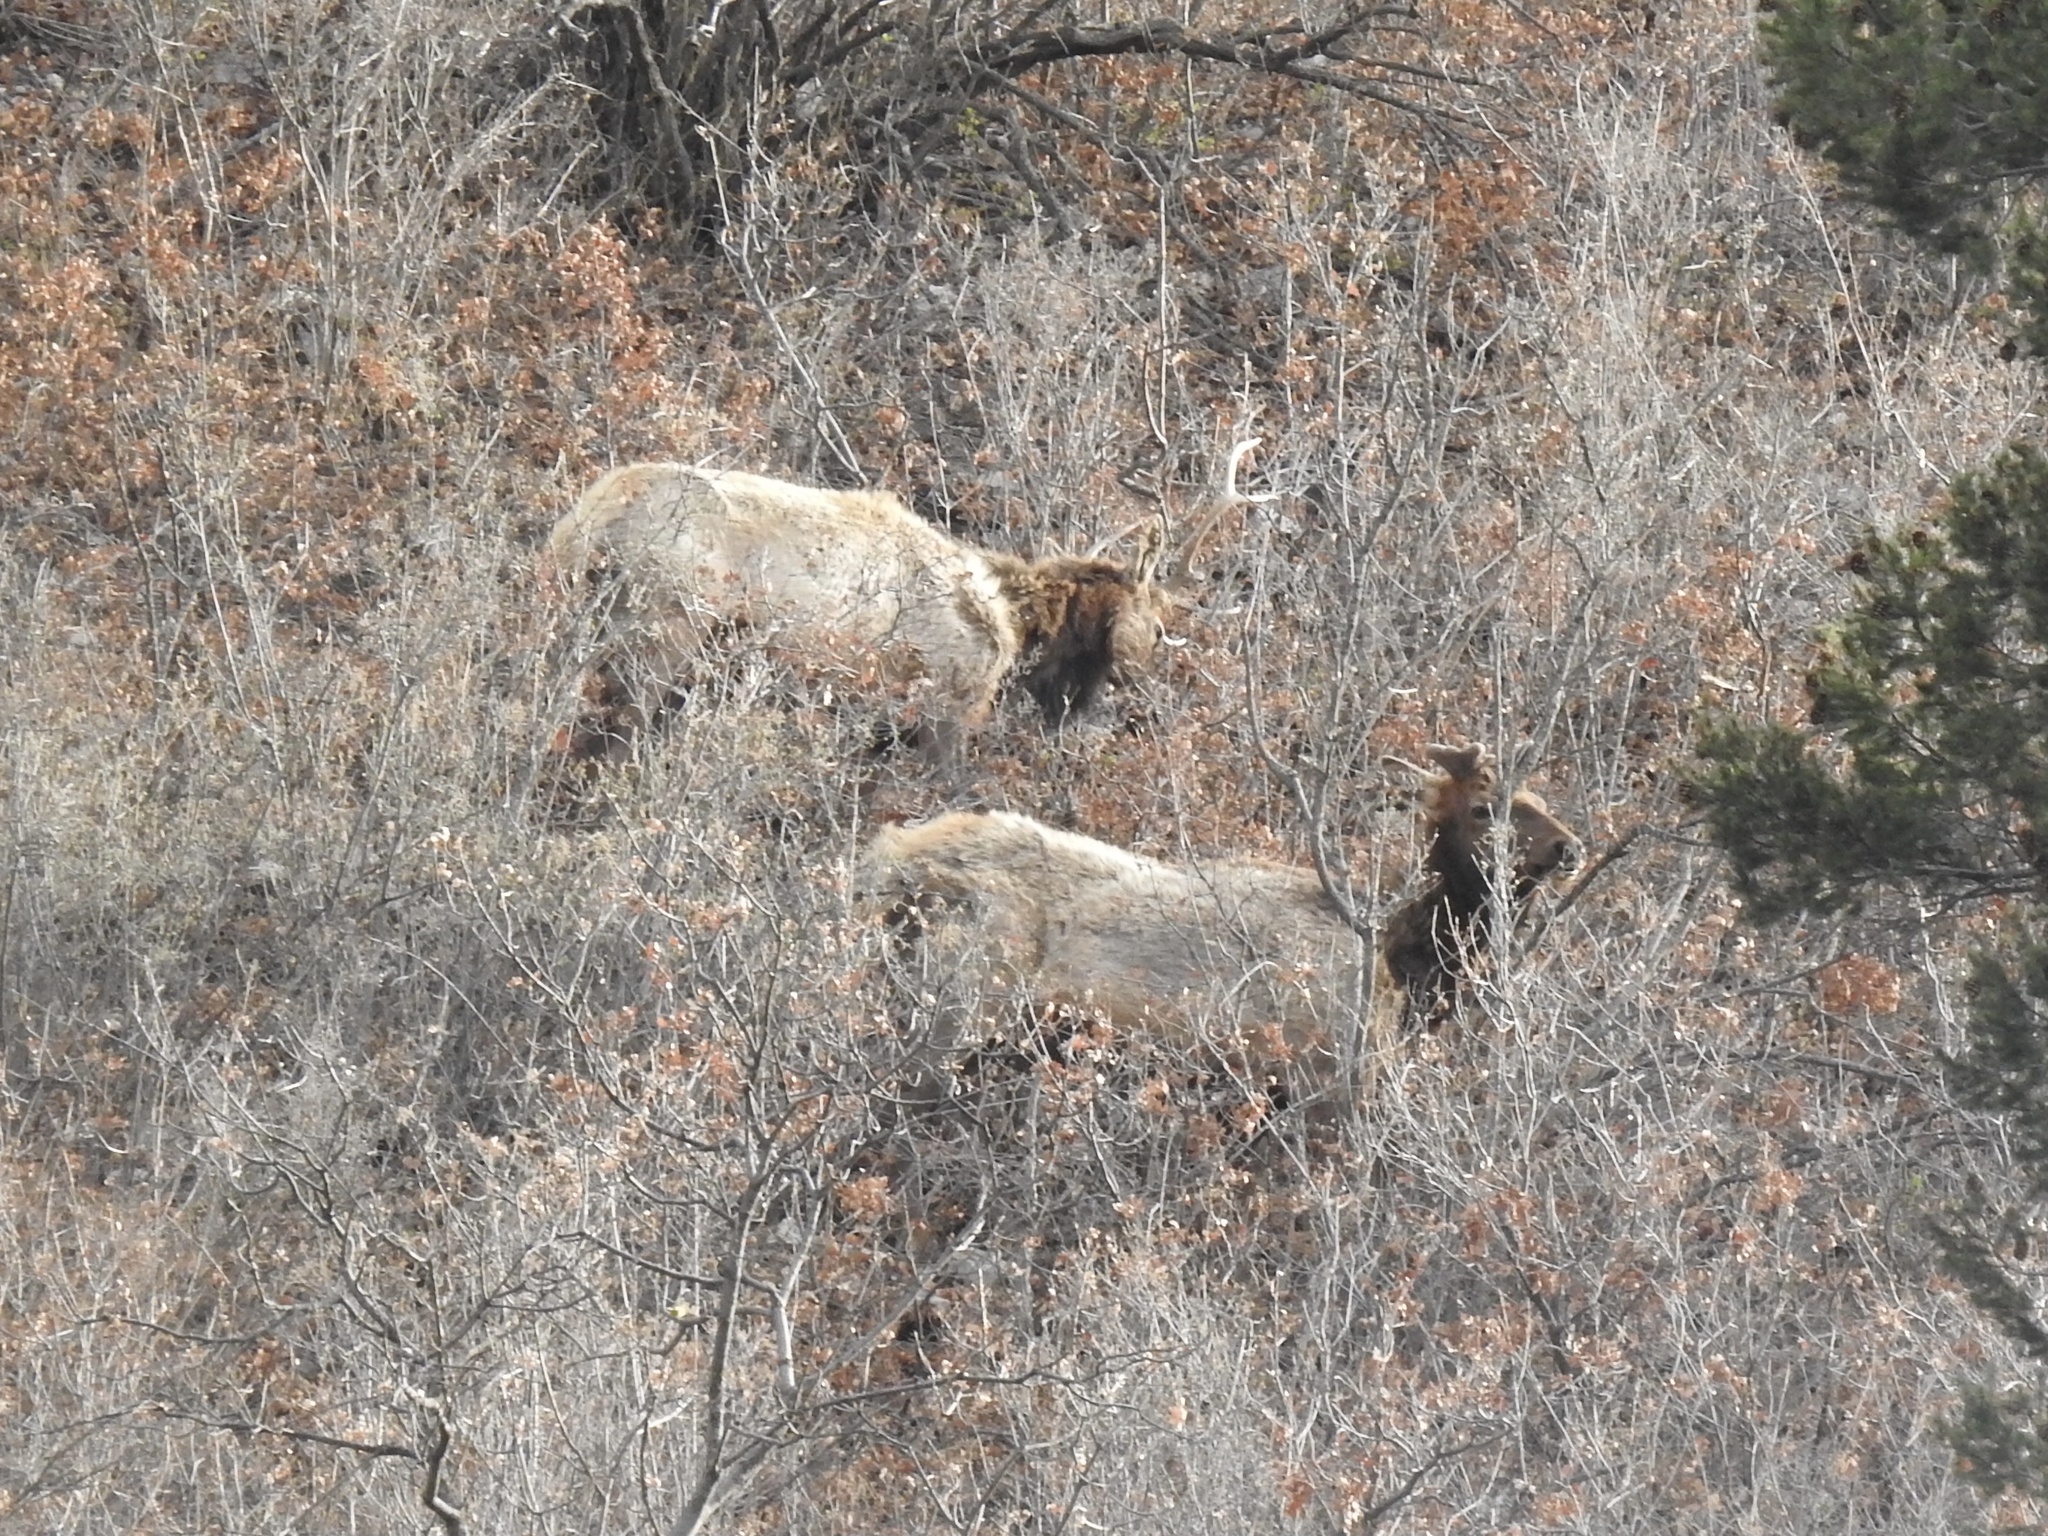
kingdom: Animalia
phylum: Chordata
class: Mammalia
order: Artiodactyla
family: Cervidae
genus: Cervus
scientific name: Cervus elaphus
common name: Red deer
